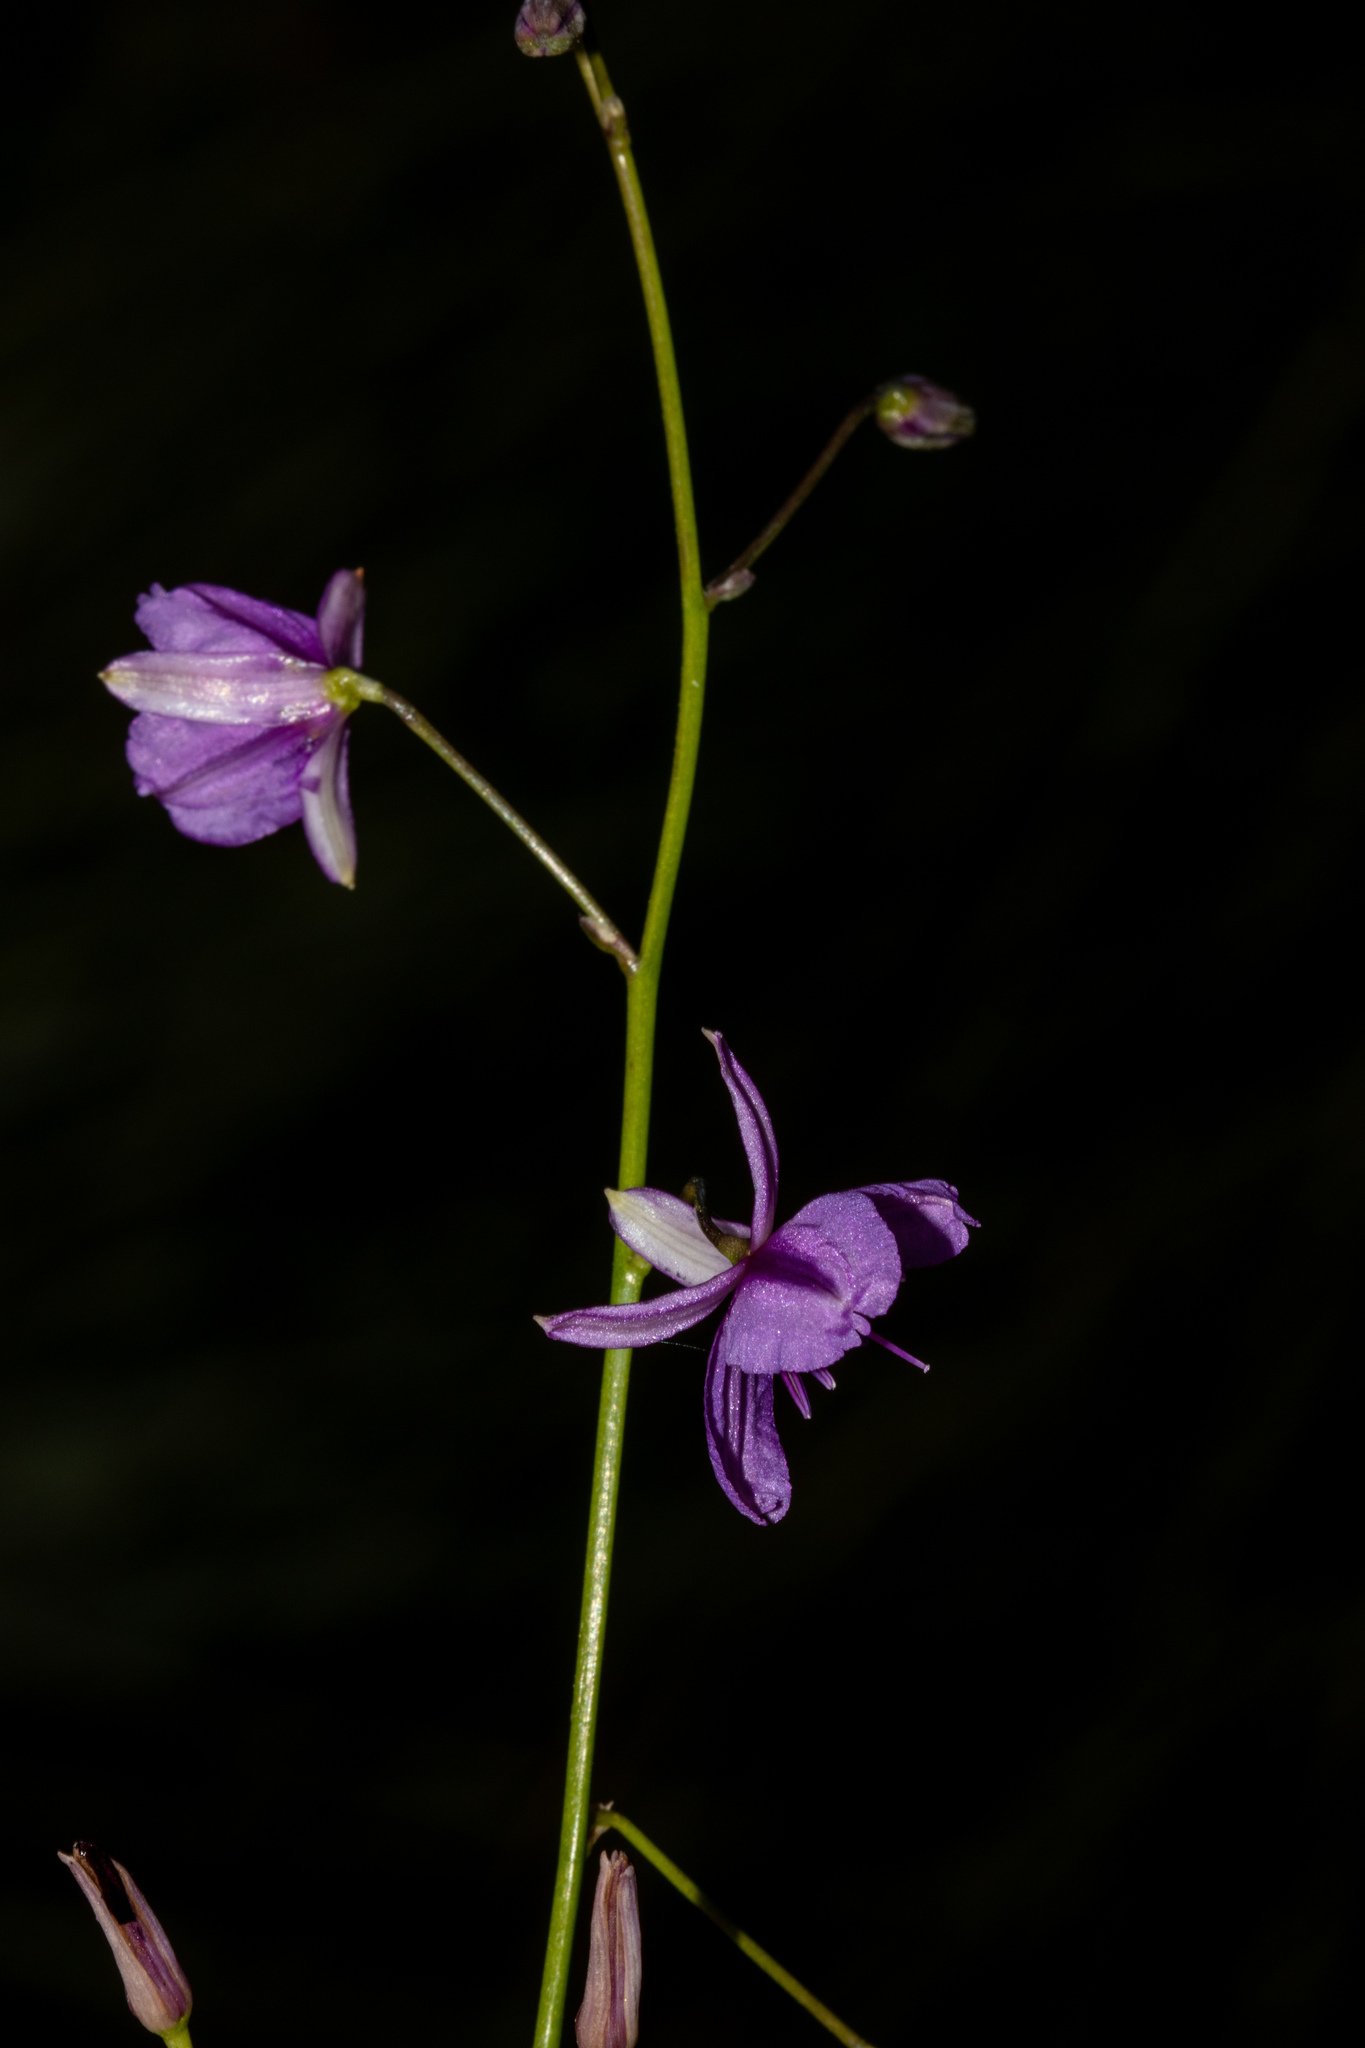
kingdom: Plantae
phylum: Tracheophyta
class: Liliopsida
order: Asparagales
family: Asparagaceae
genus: Arthropodium
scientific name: Arthropodium strictum
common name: Chocolate-lily
